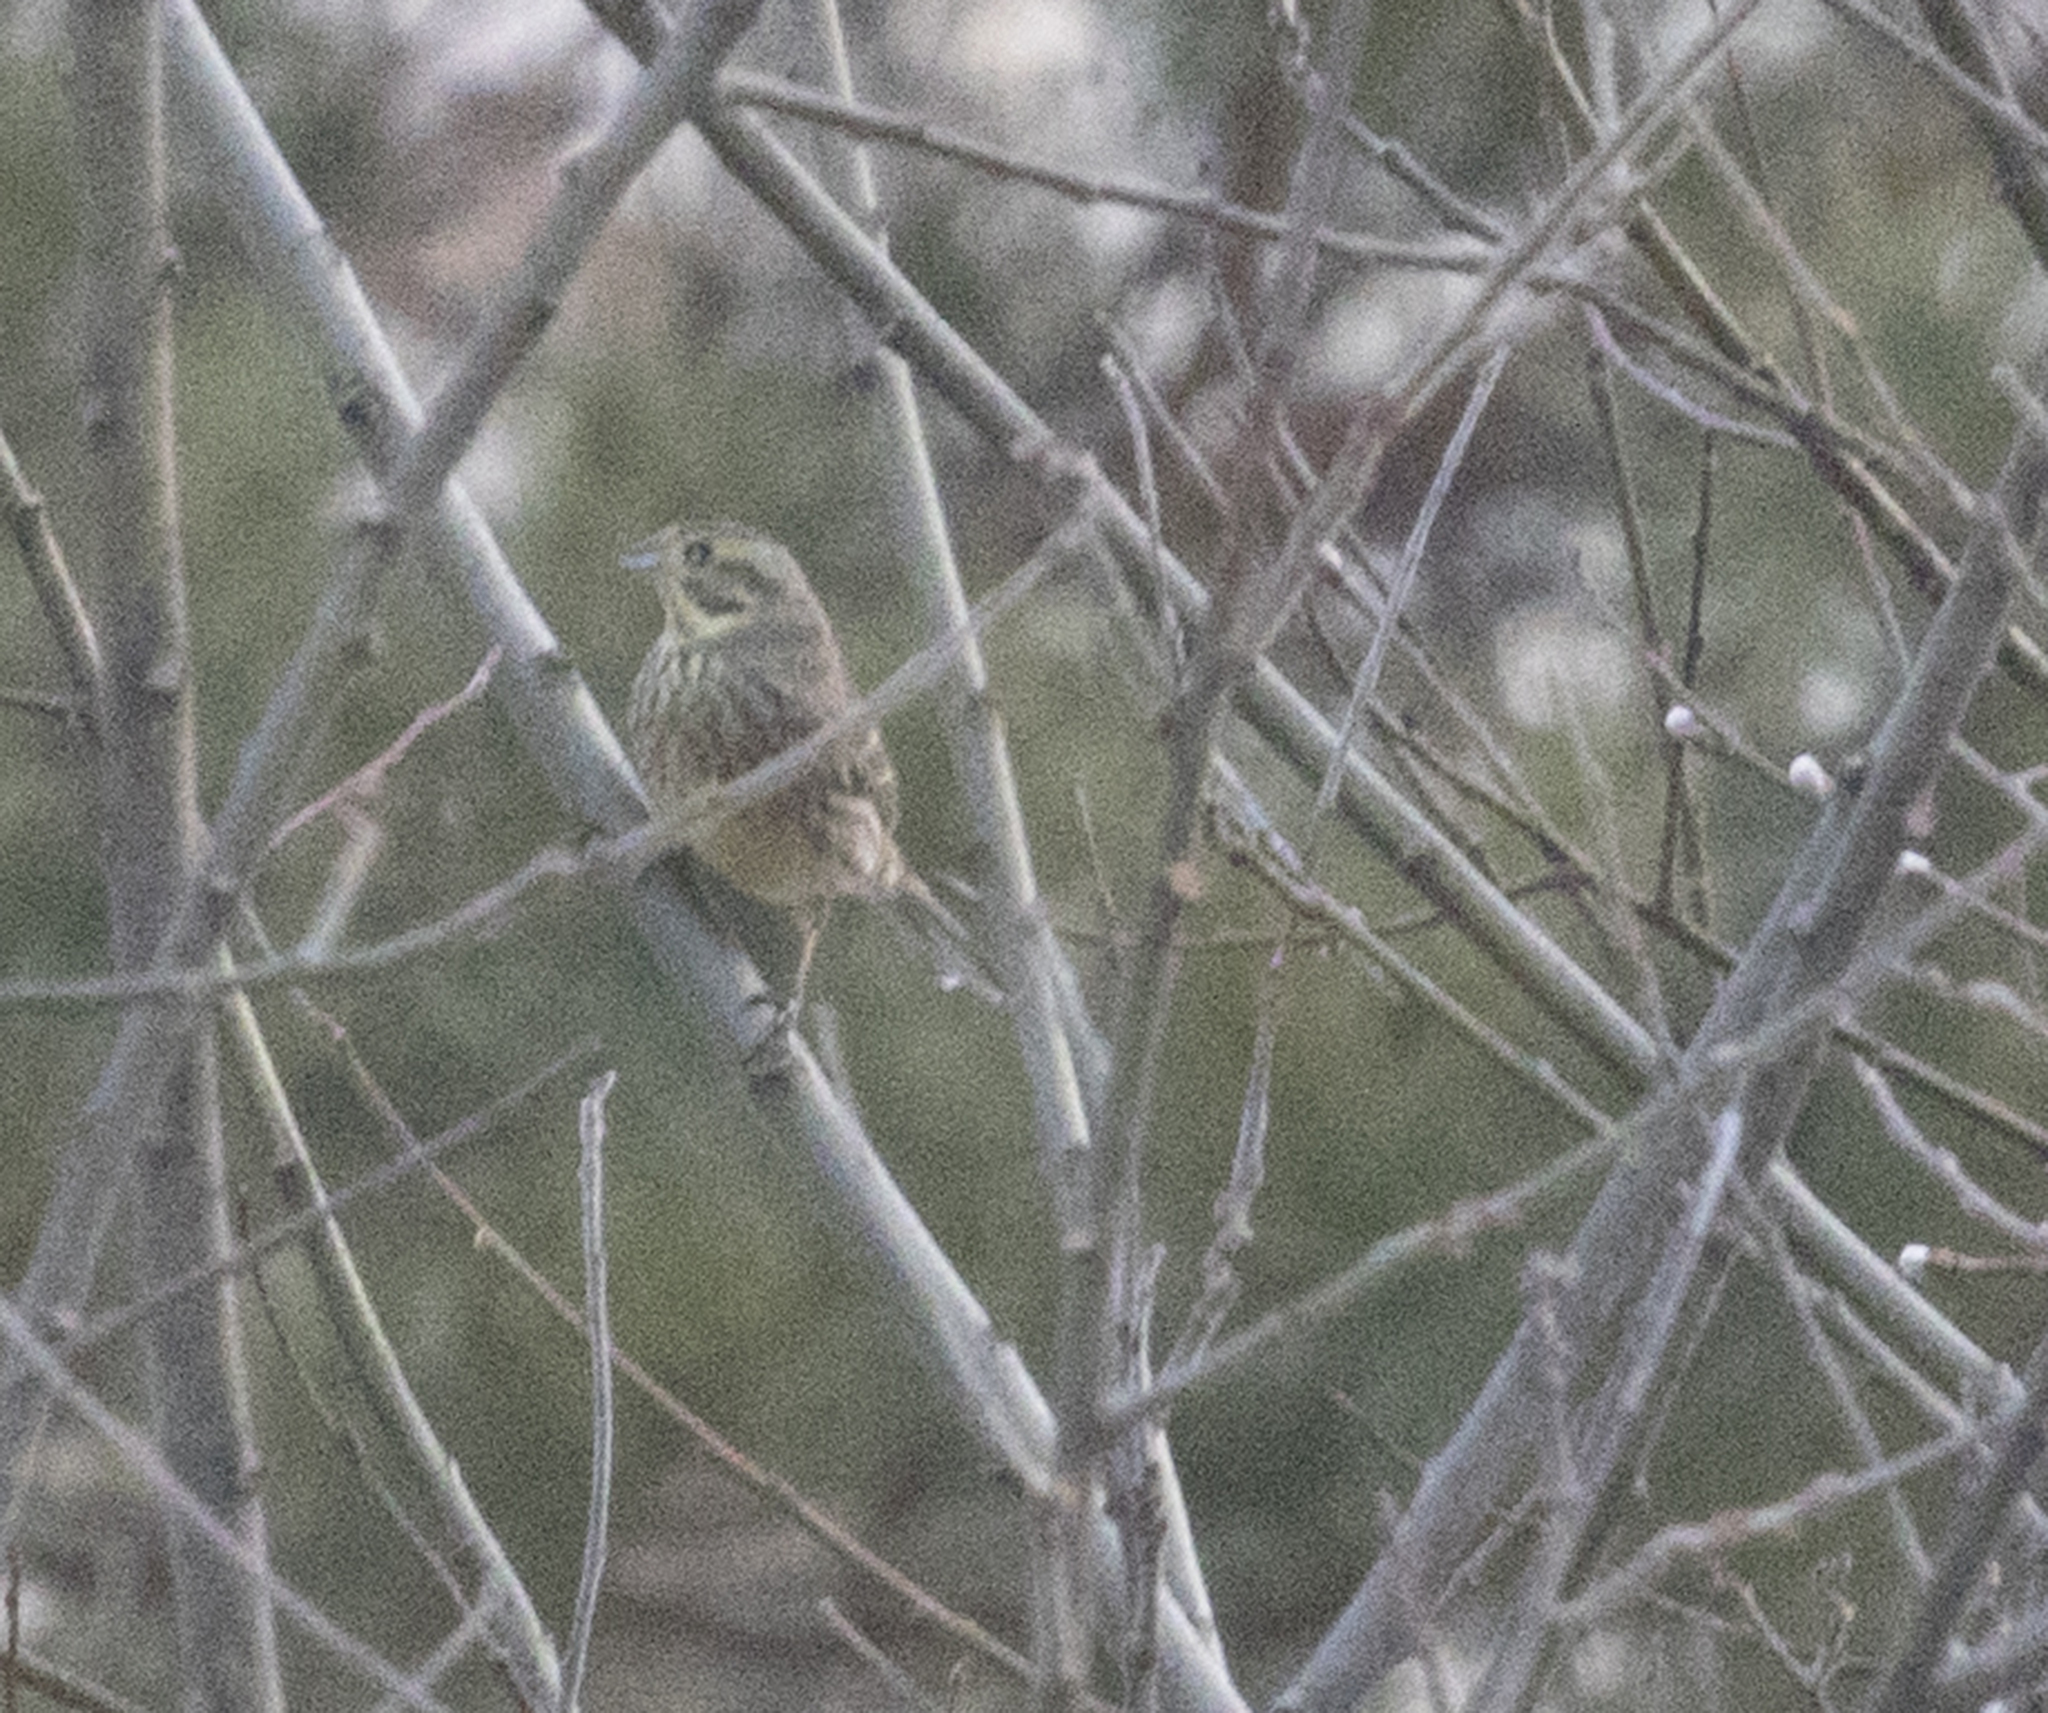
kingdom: Animalia
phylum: Chordata
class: Aves
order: Passeriformes
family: Emberizidae
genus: Emberiza
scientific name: Emberiza citrinella
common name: Yellowhammer
